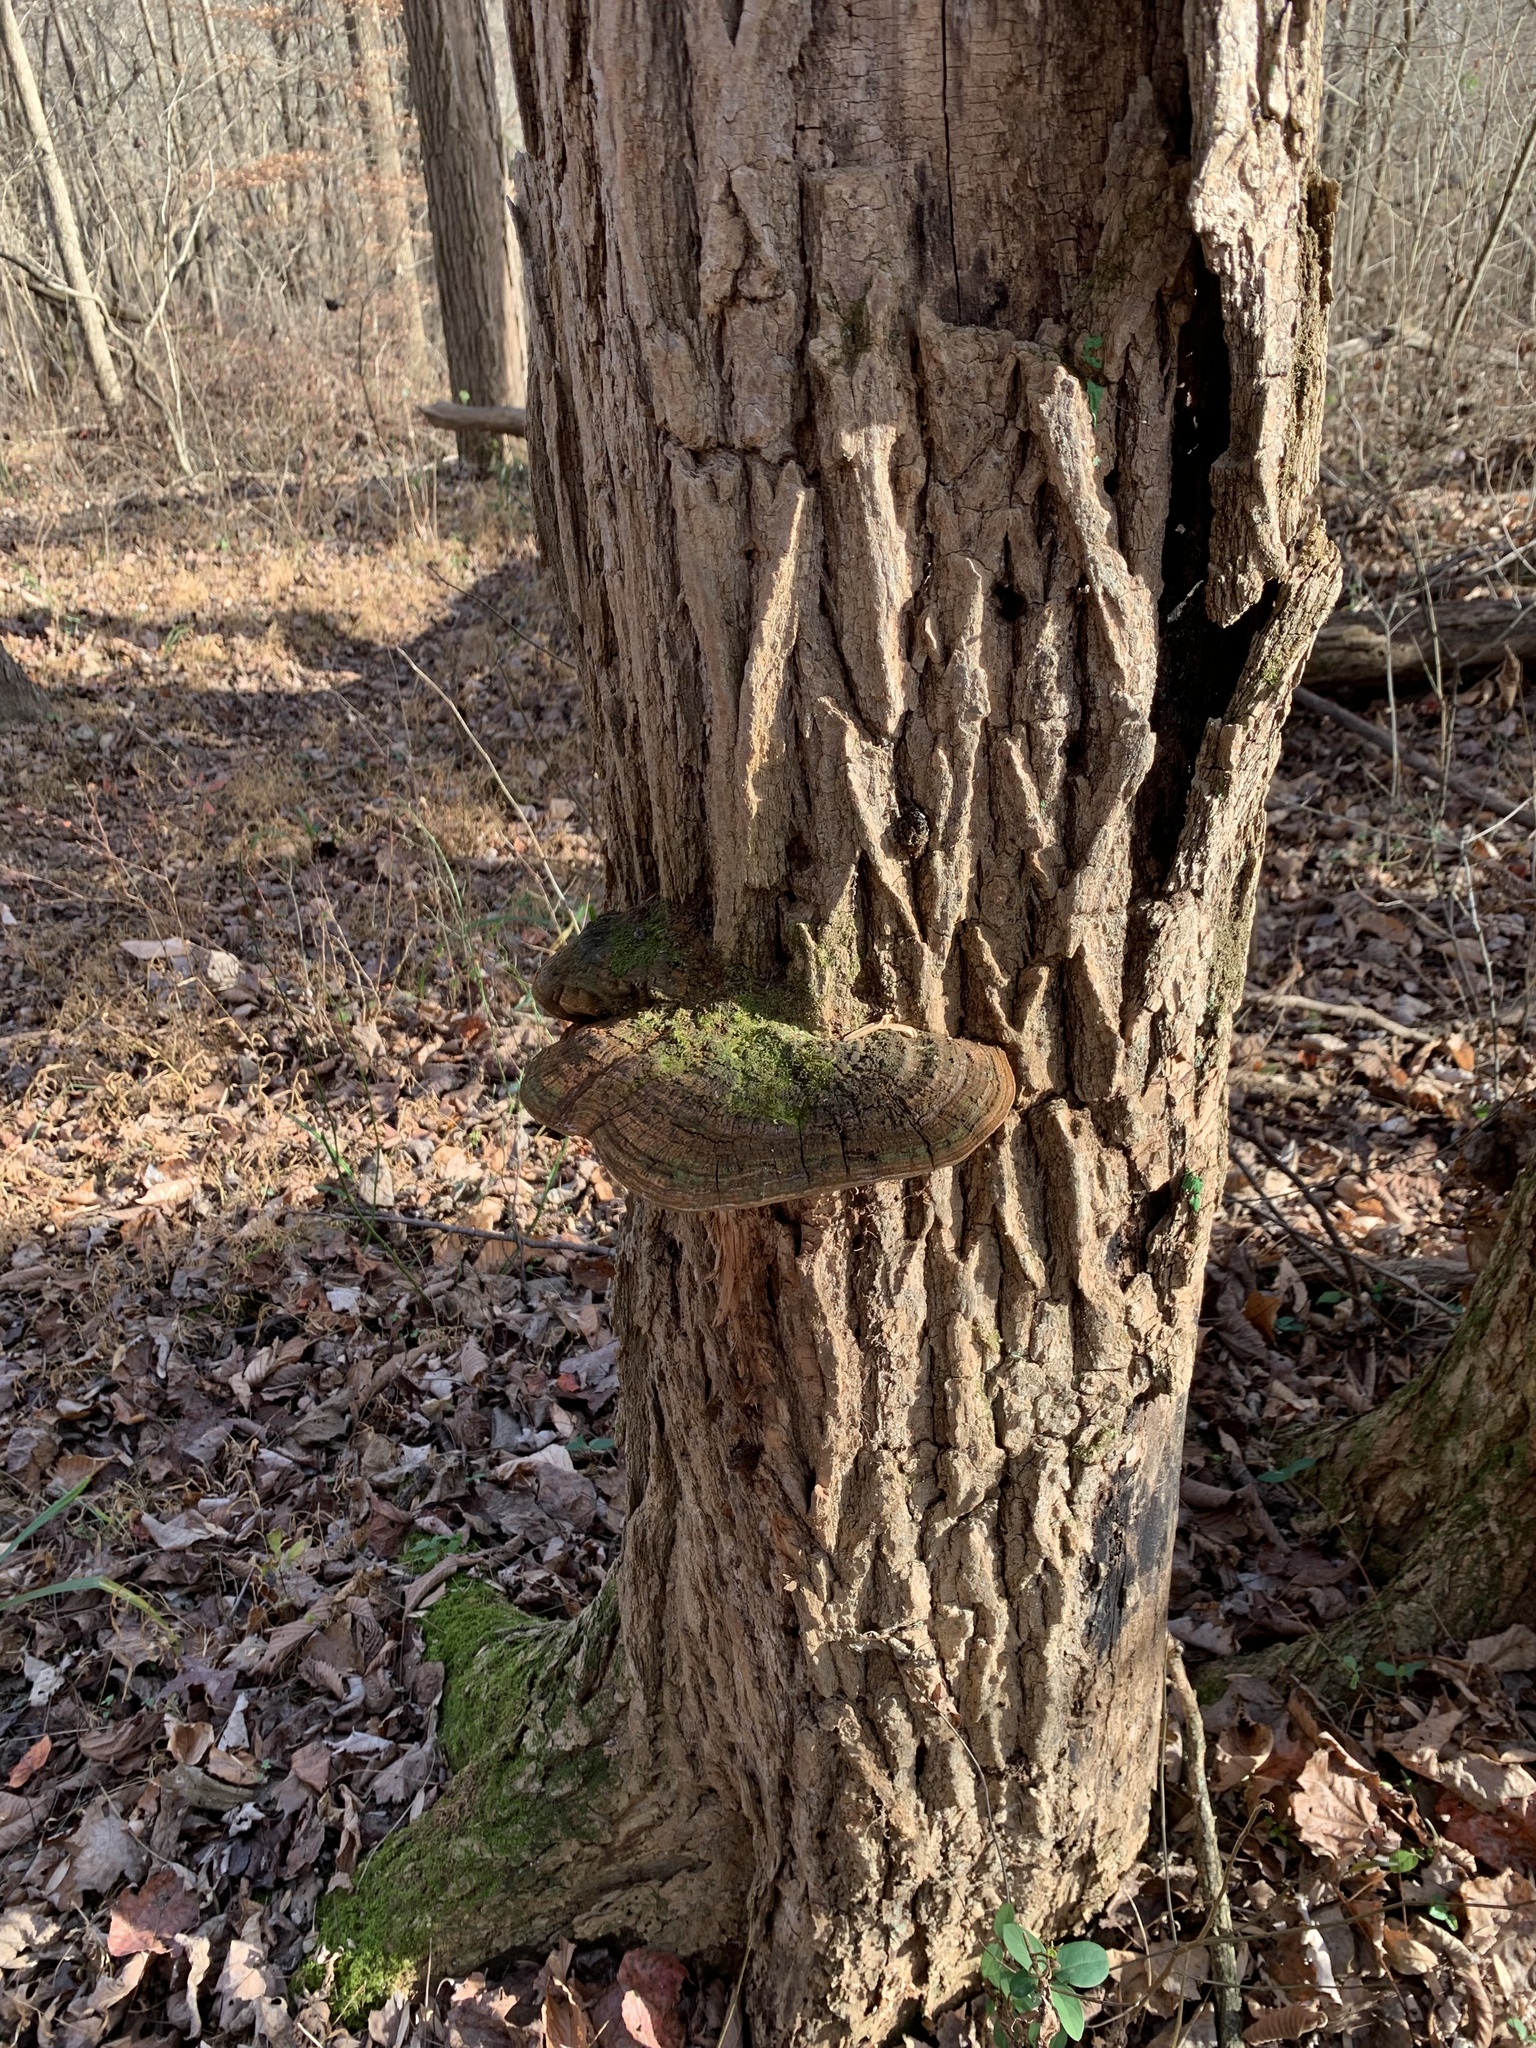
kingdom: Fungi
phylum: Basidiomycota
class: Agaricomycetes
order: Hymenochaetales
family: Hymenochaetaceae
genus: Phellinus
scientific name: Phellinus robiniae
